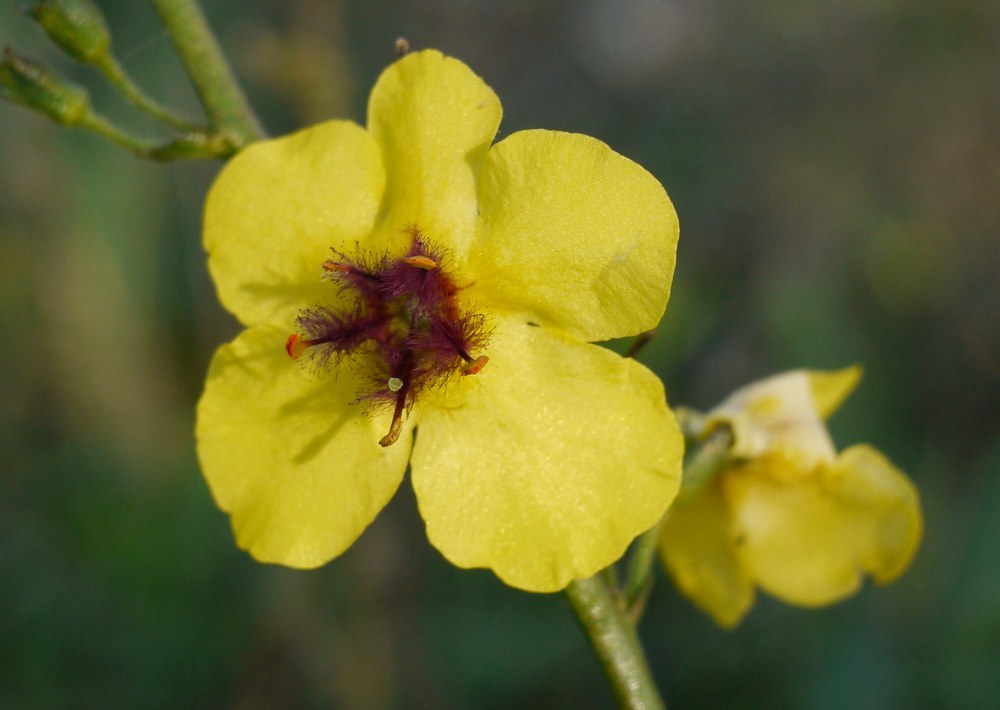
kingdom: Plantae
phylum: Tracheophyta
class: Magnoliopsida
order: Lamiales
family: Scrophulariaceae
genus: Verbascum
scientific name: Verbascum blattaria
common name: Moth mullein
